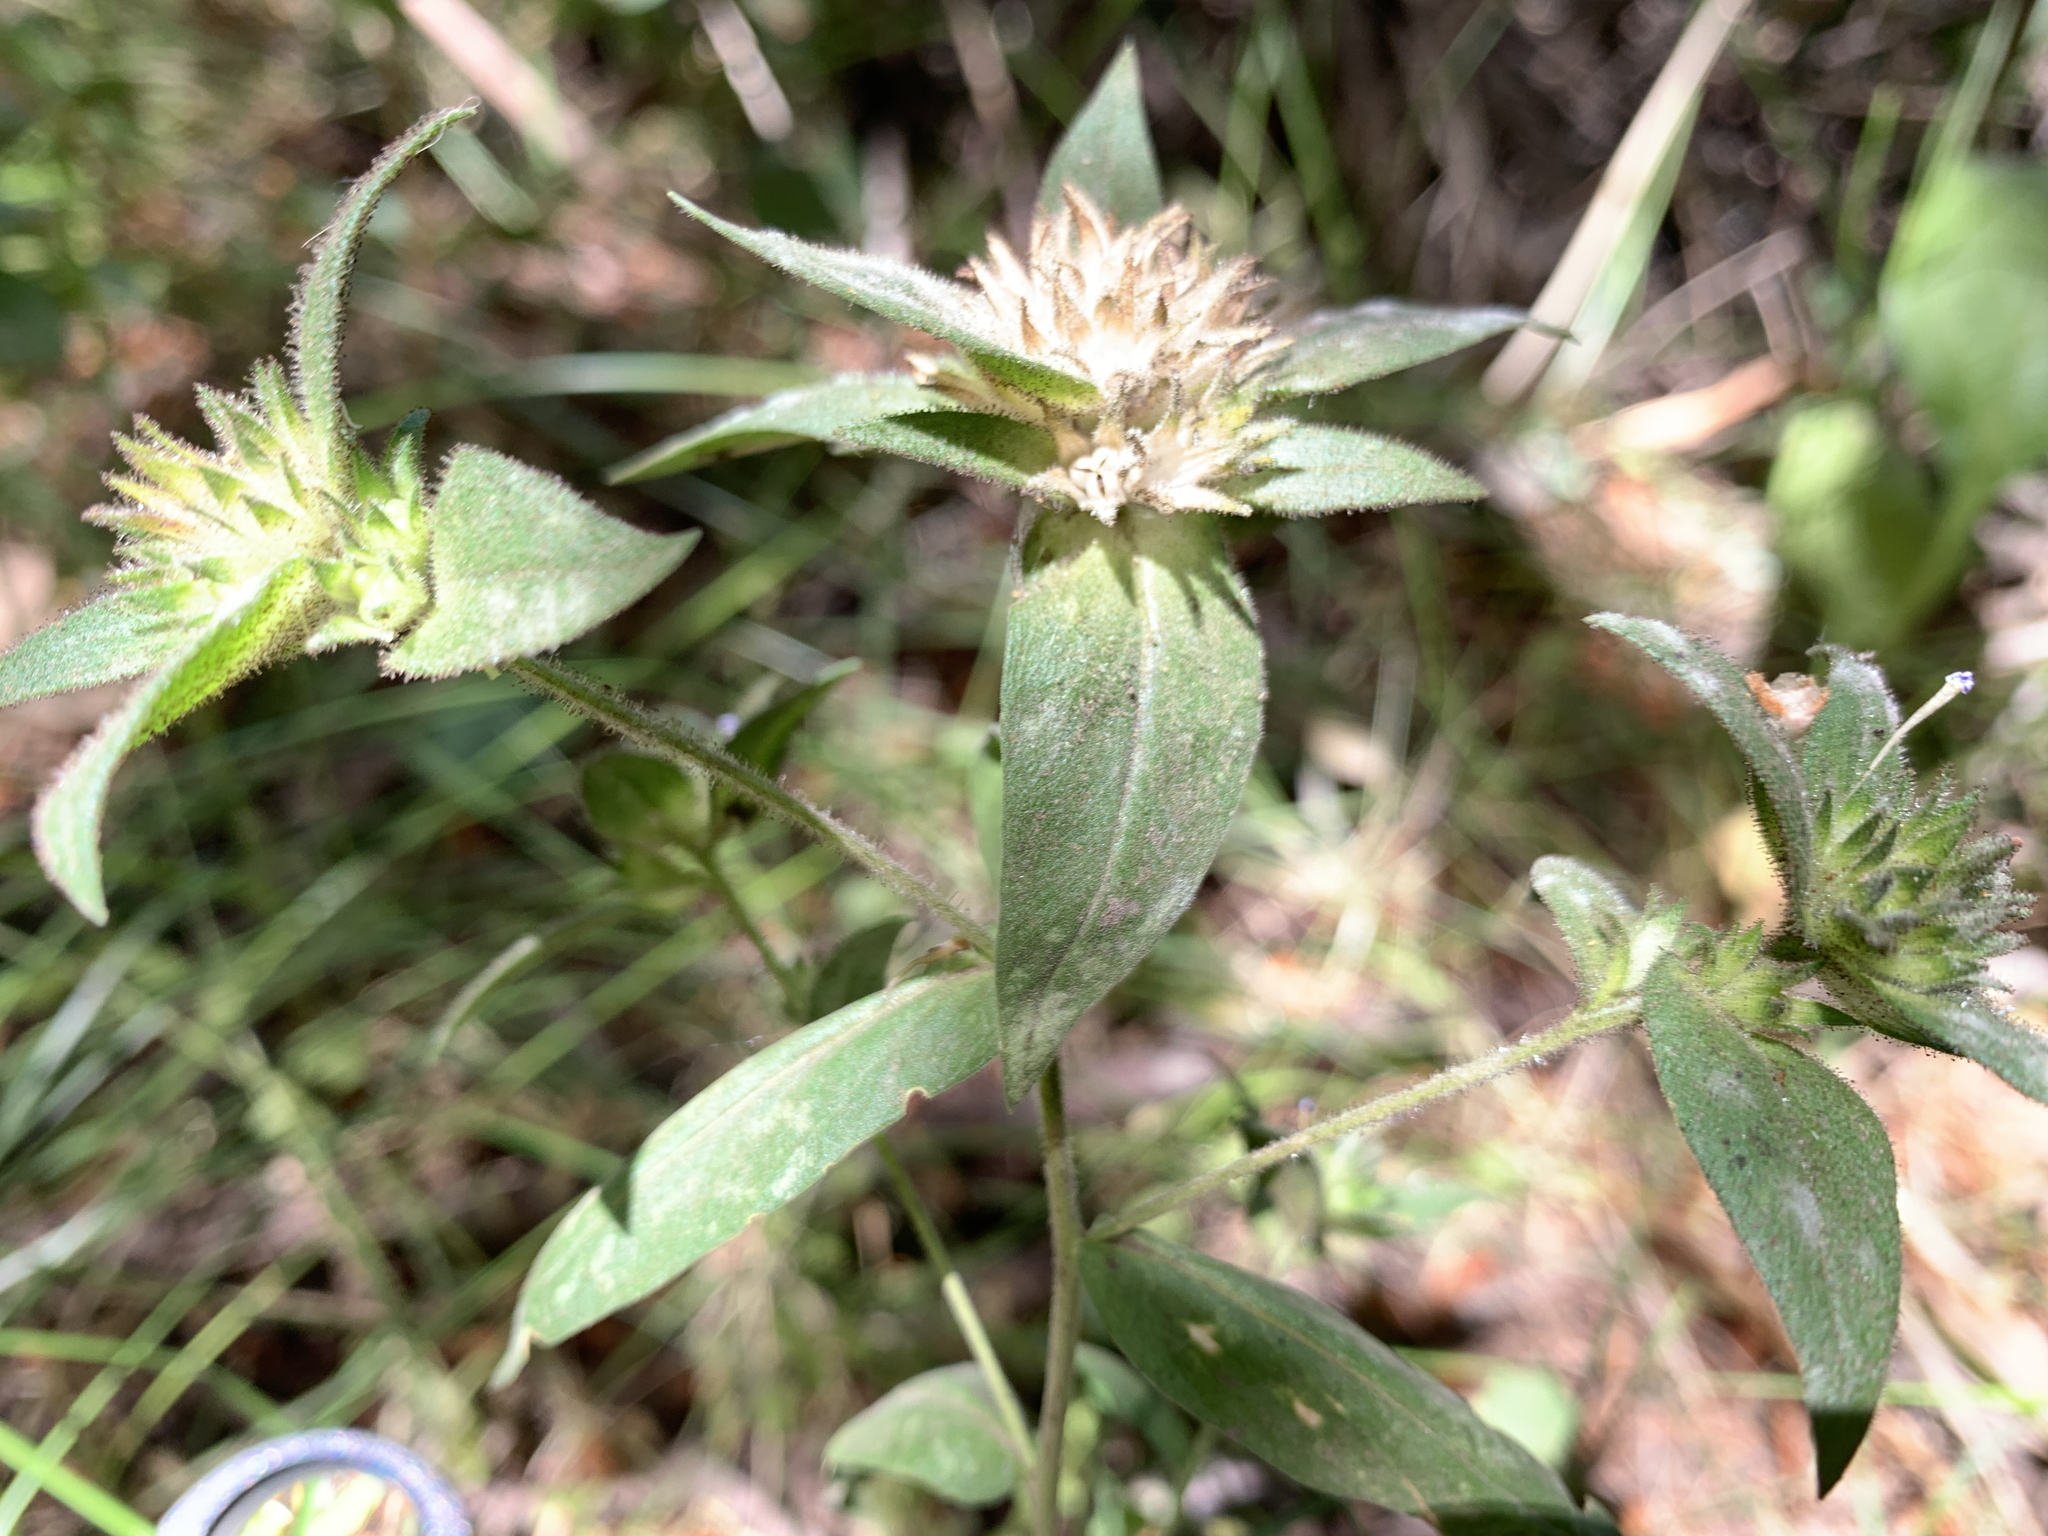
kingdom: Plantae
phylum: Tracheophyta
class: Magnoliopsida
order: Ericales
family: Polemoniaceae
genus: Collomia
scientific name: Collomia linearis
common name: Tiny trumpet
